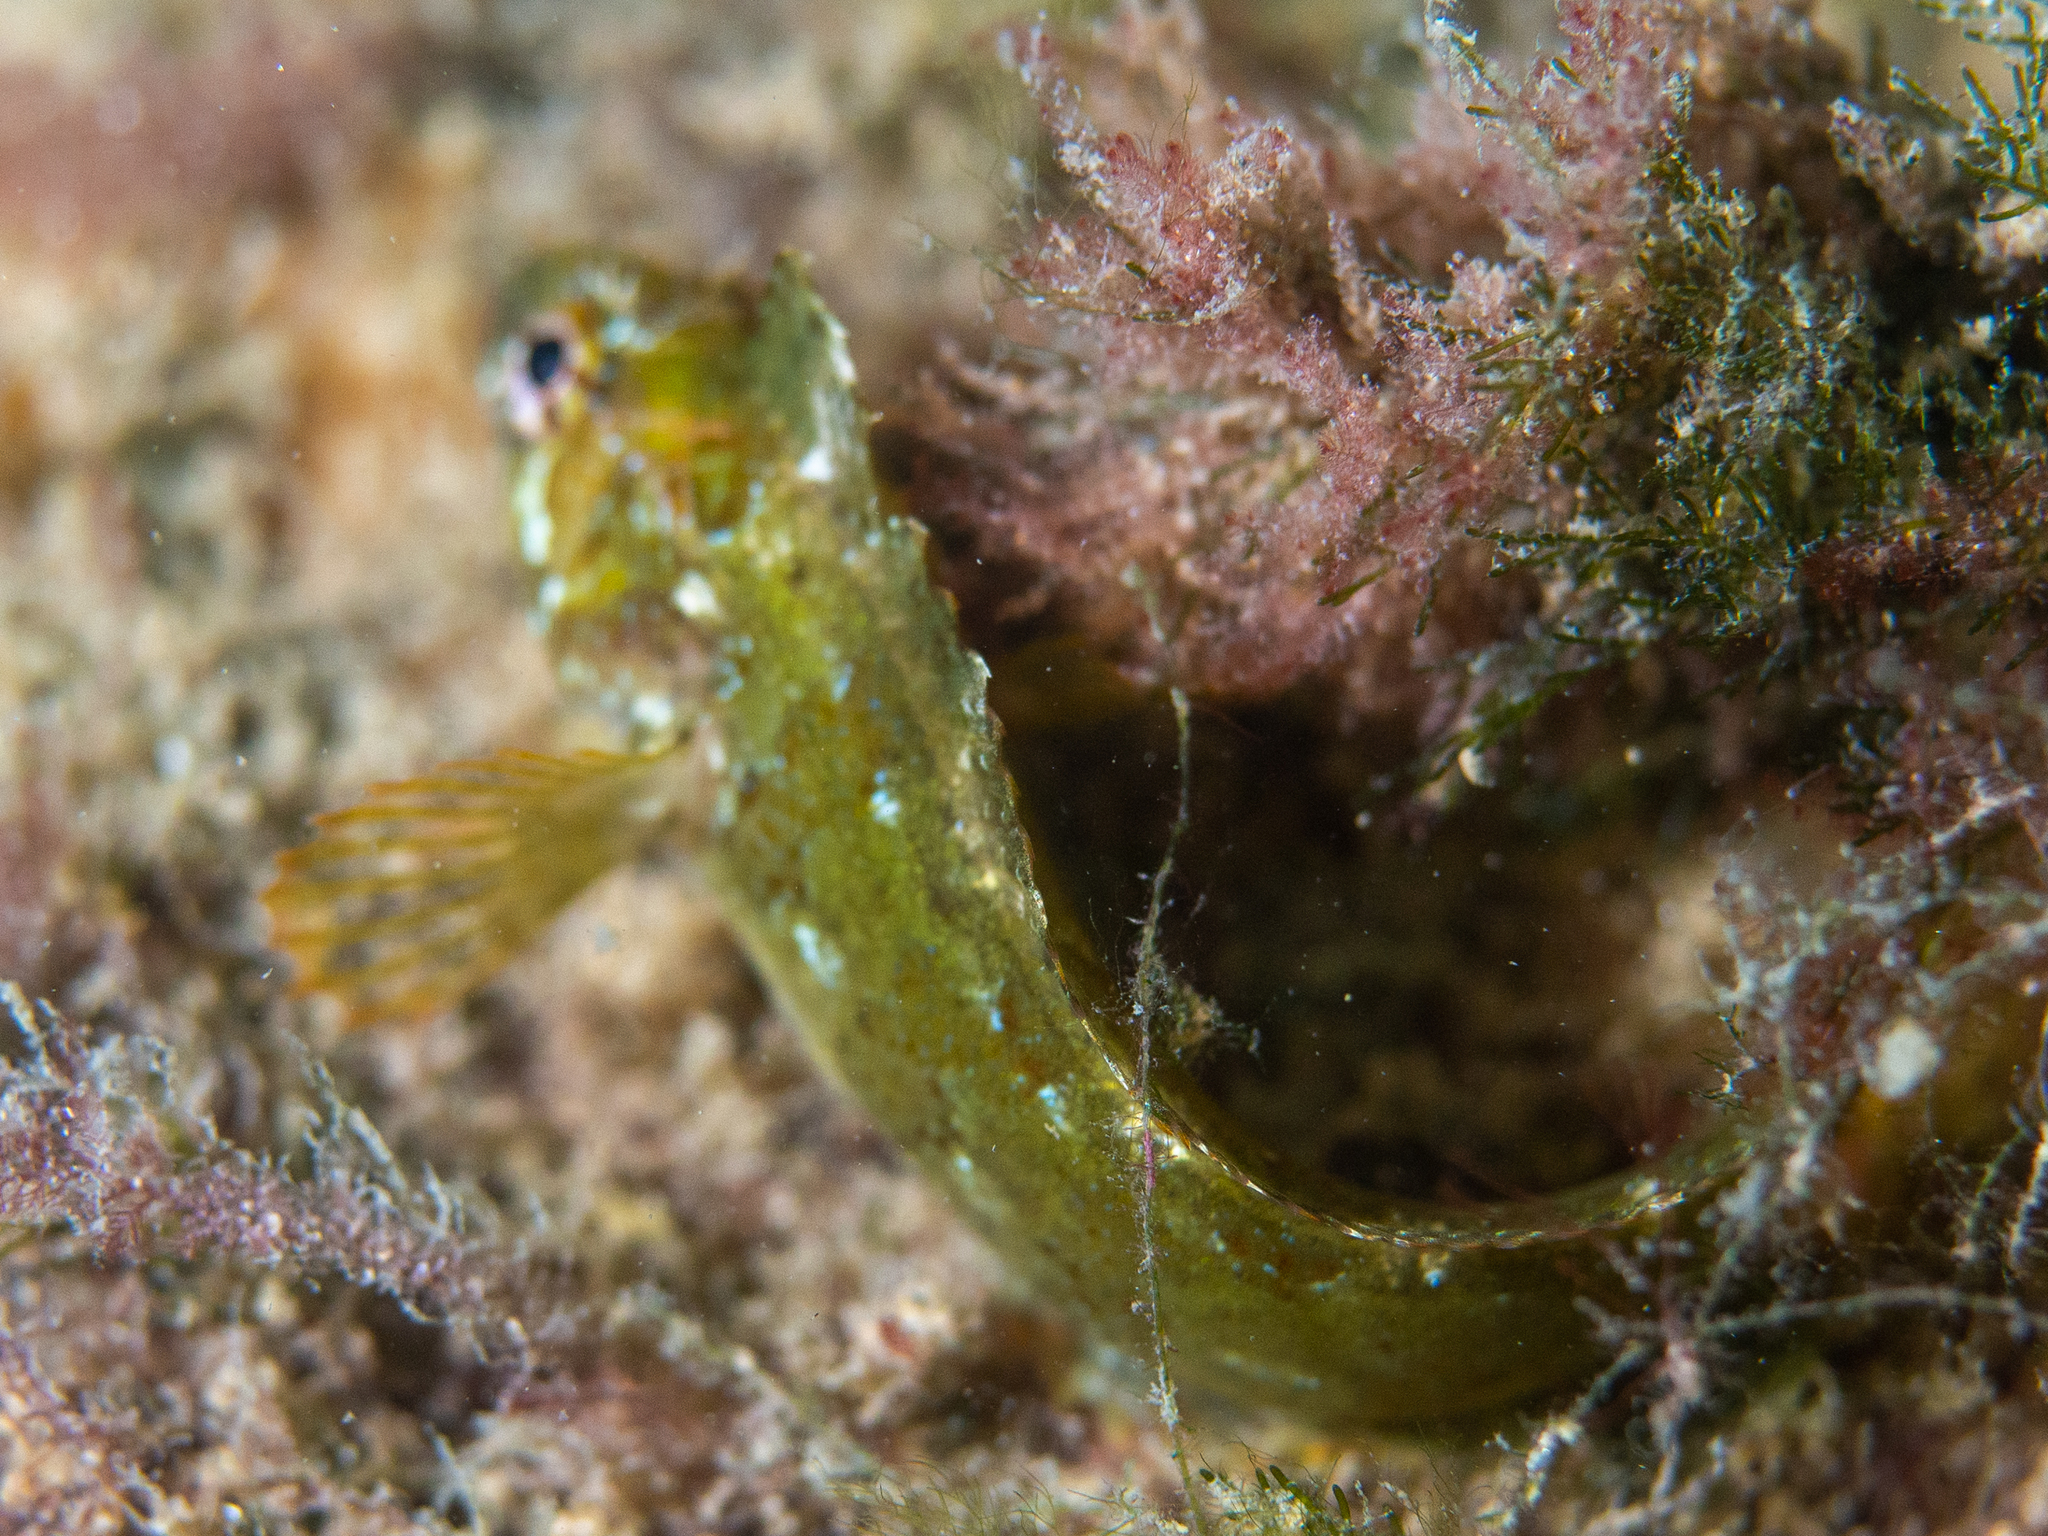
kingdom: Animalia
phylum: Chordata
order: Perciformes
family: Clinidae
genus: Heteroclinus
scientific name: Heteroclinus perspicillatus
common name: Common weedfish
